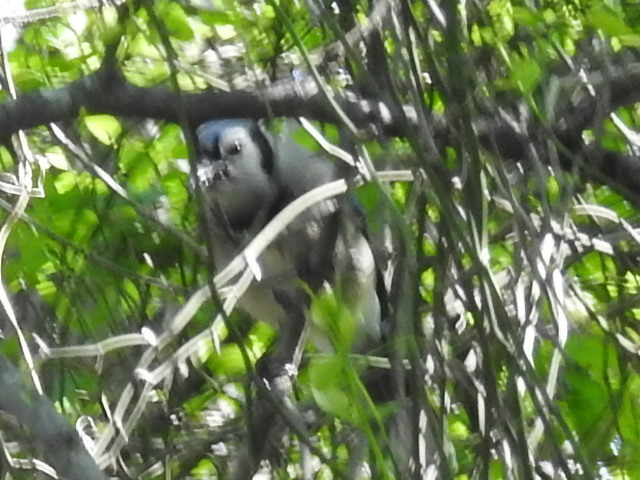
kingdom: Animalia
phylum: Chordata
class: Aves
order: Passeriformes
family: Corvidae
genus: Cyanocitta
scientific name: Cyanocitta cristata
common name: Blue jay
